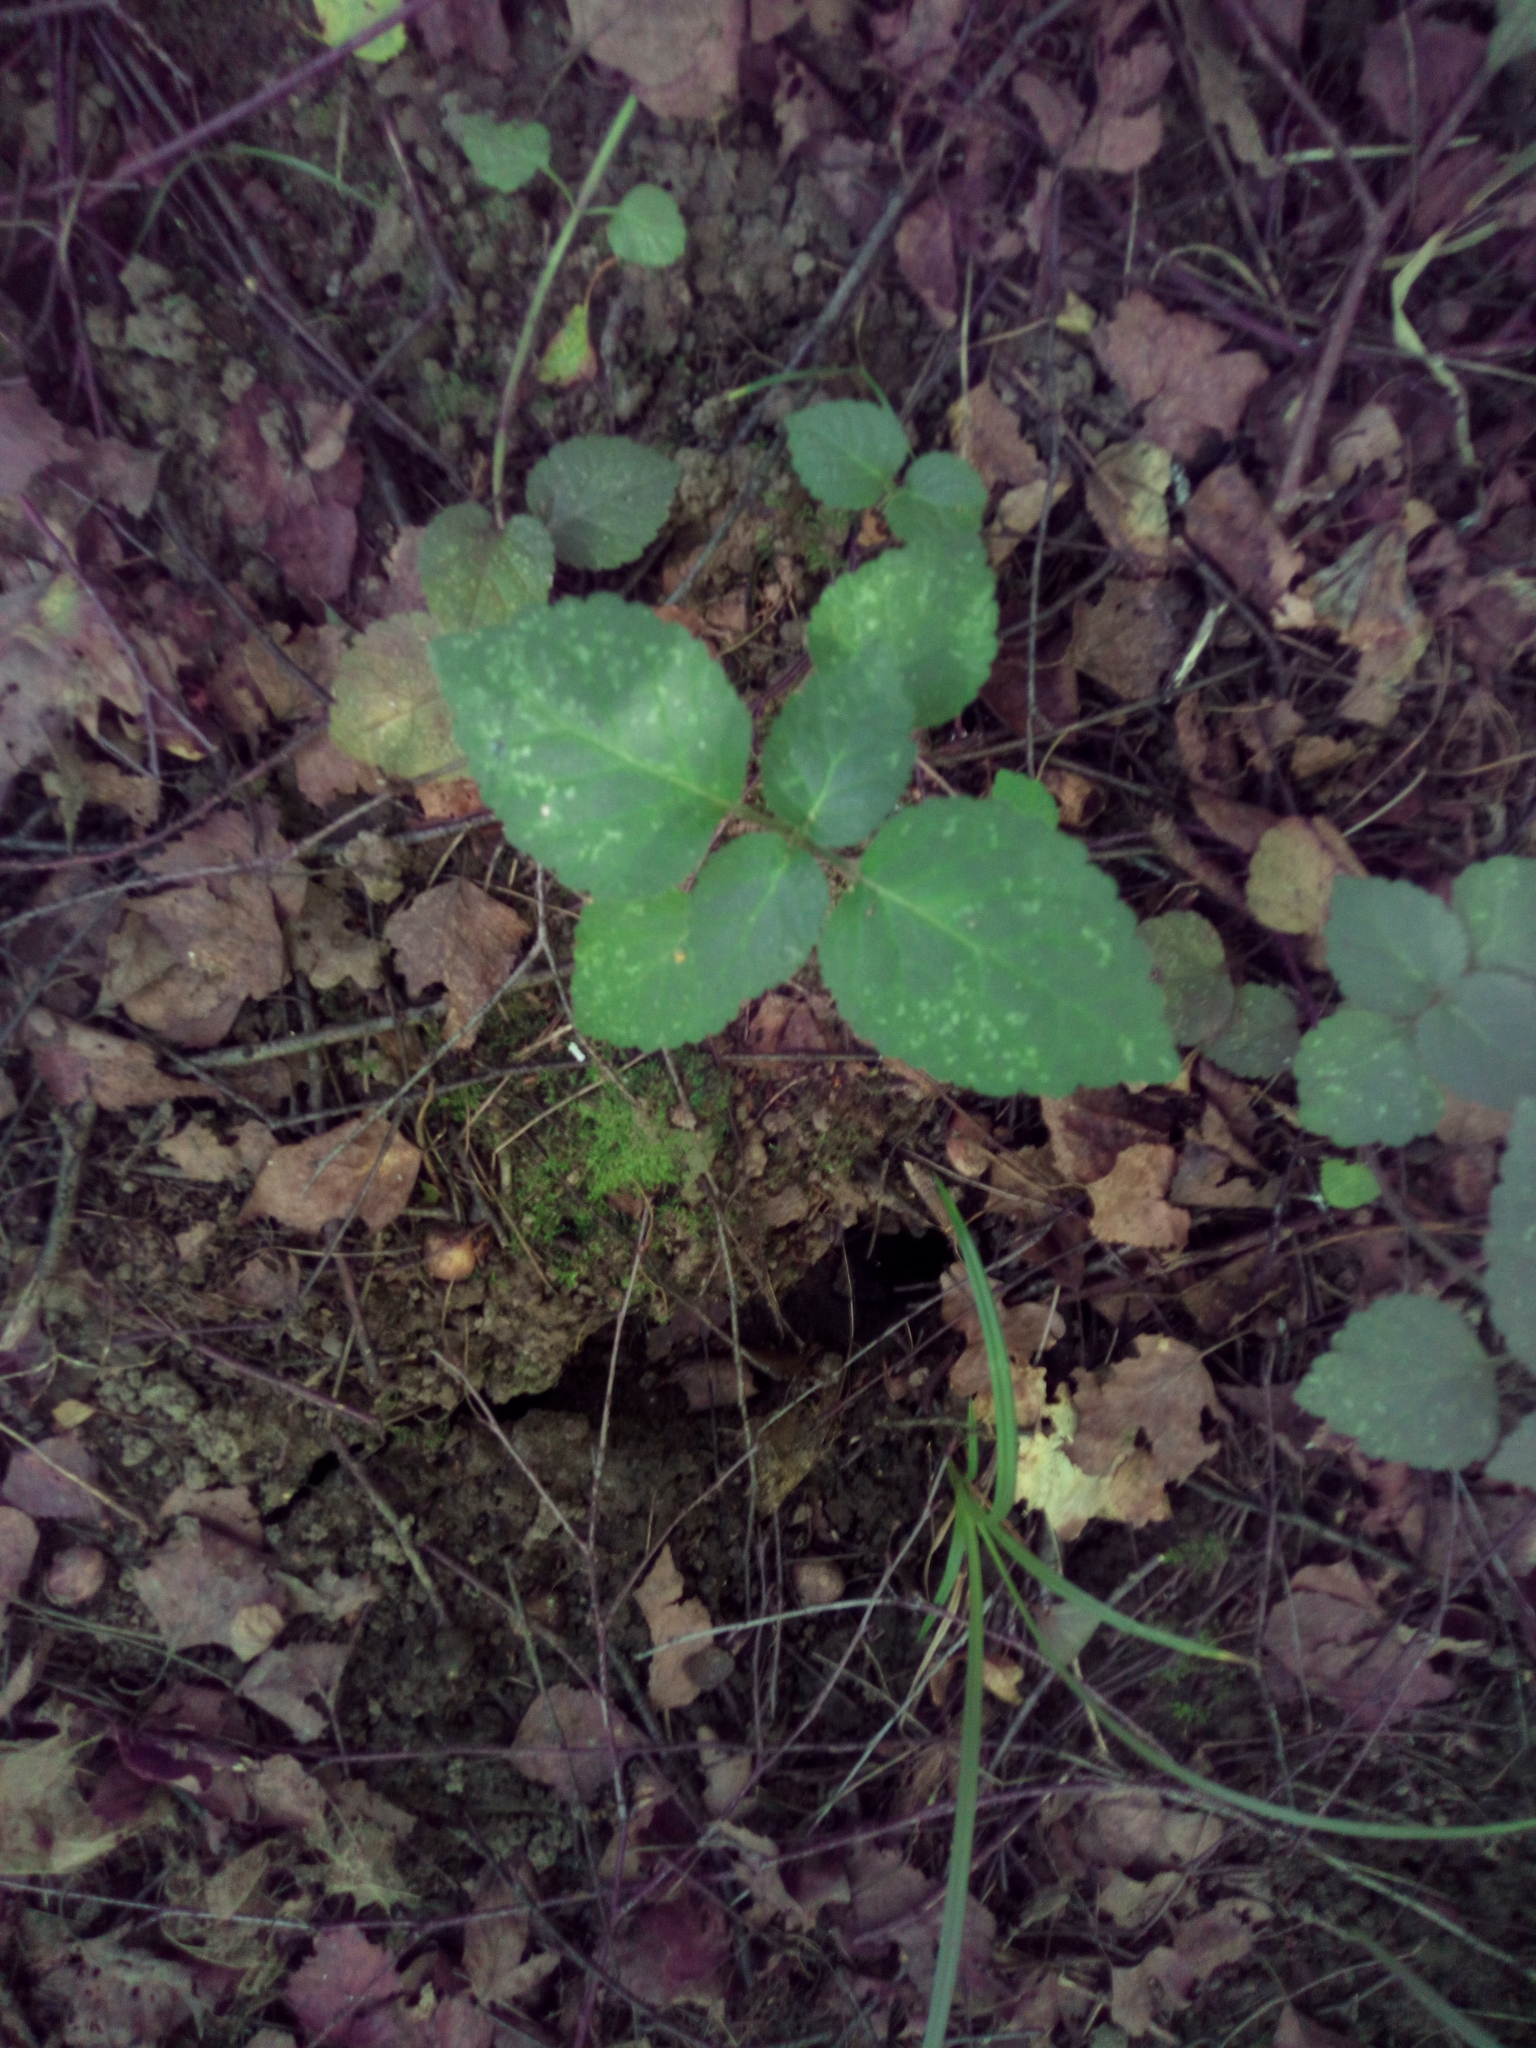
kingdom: Plantae
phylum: Tracheophyta
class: Magnoliopsida
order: Lamiales
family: Lamiaceae
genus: Lamium
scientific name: Lamium galeobdolon
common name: Yellow archangel
